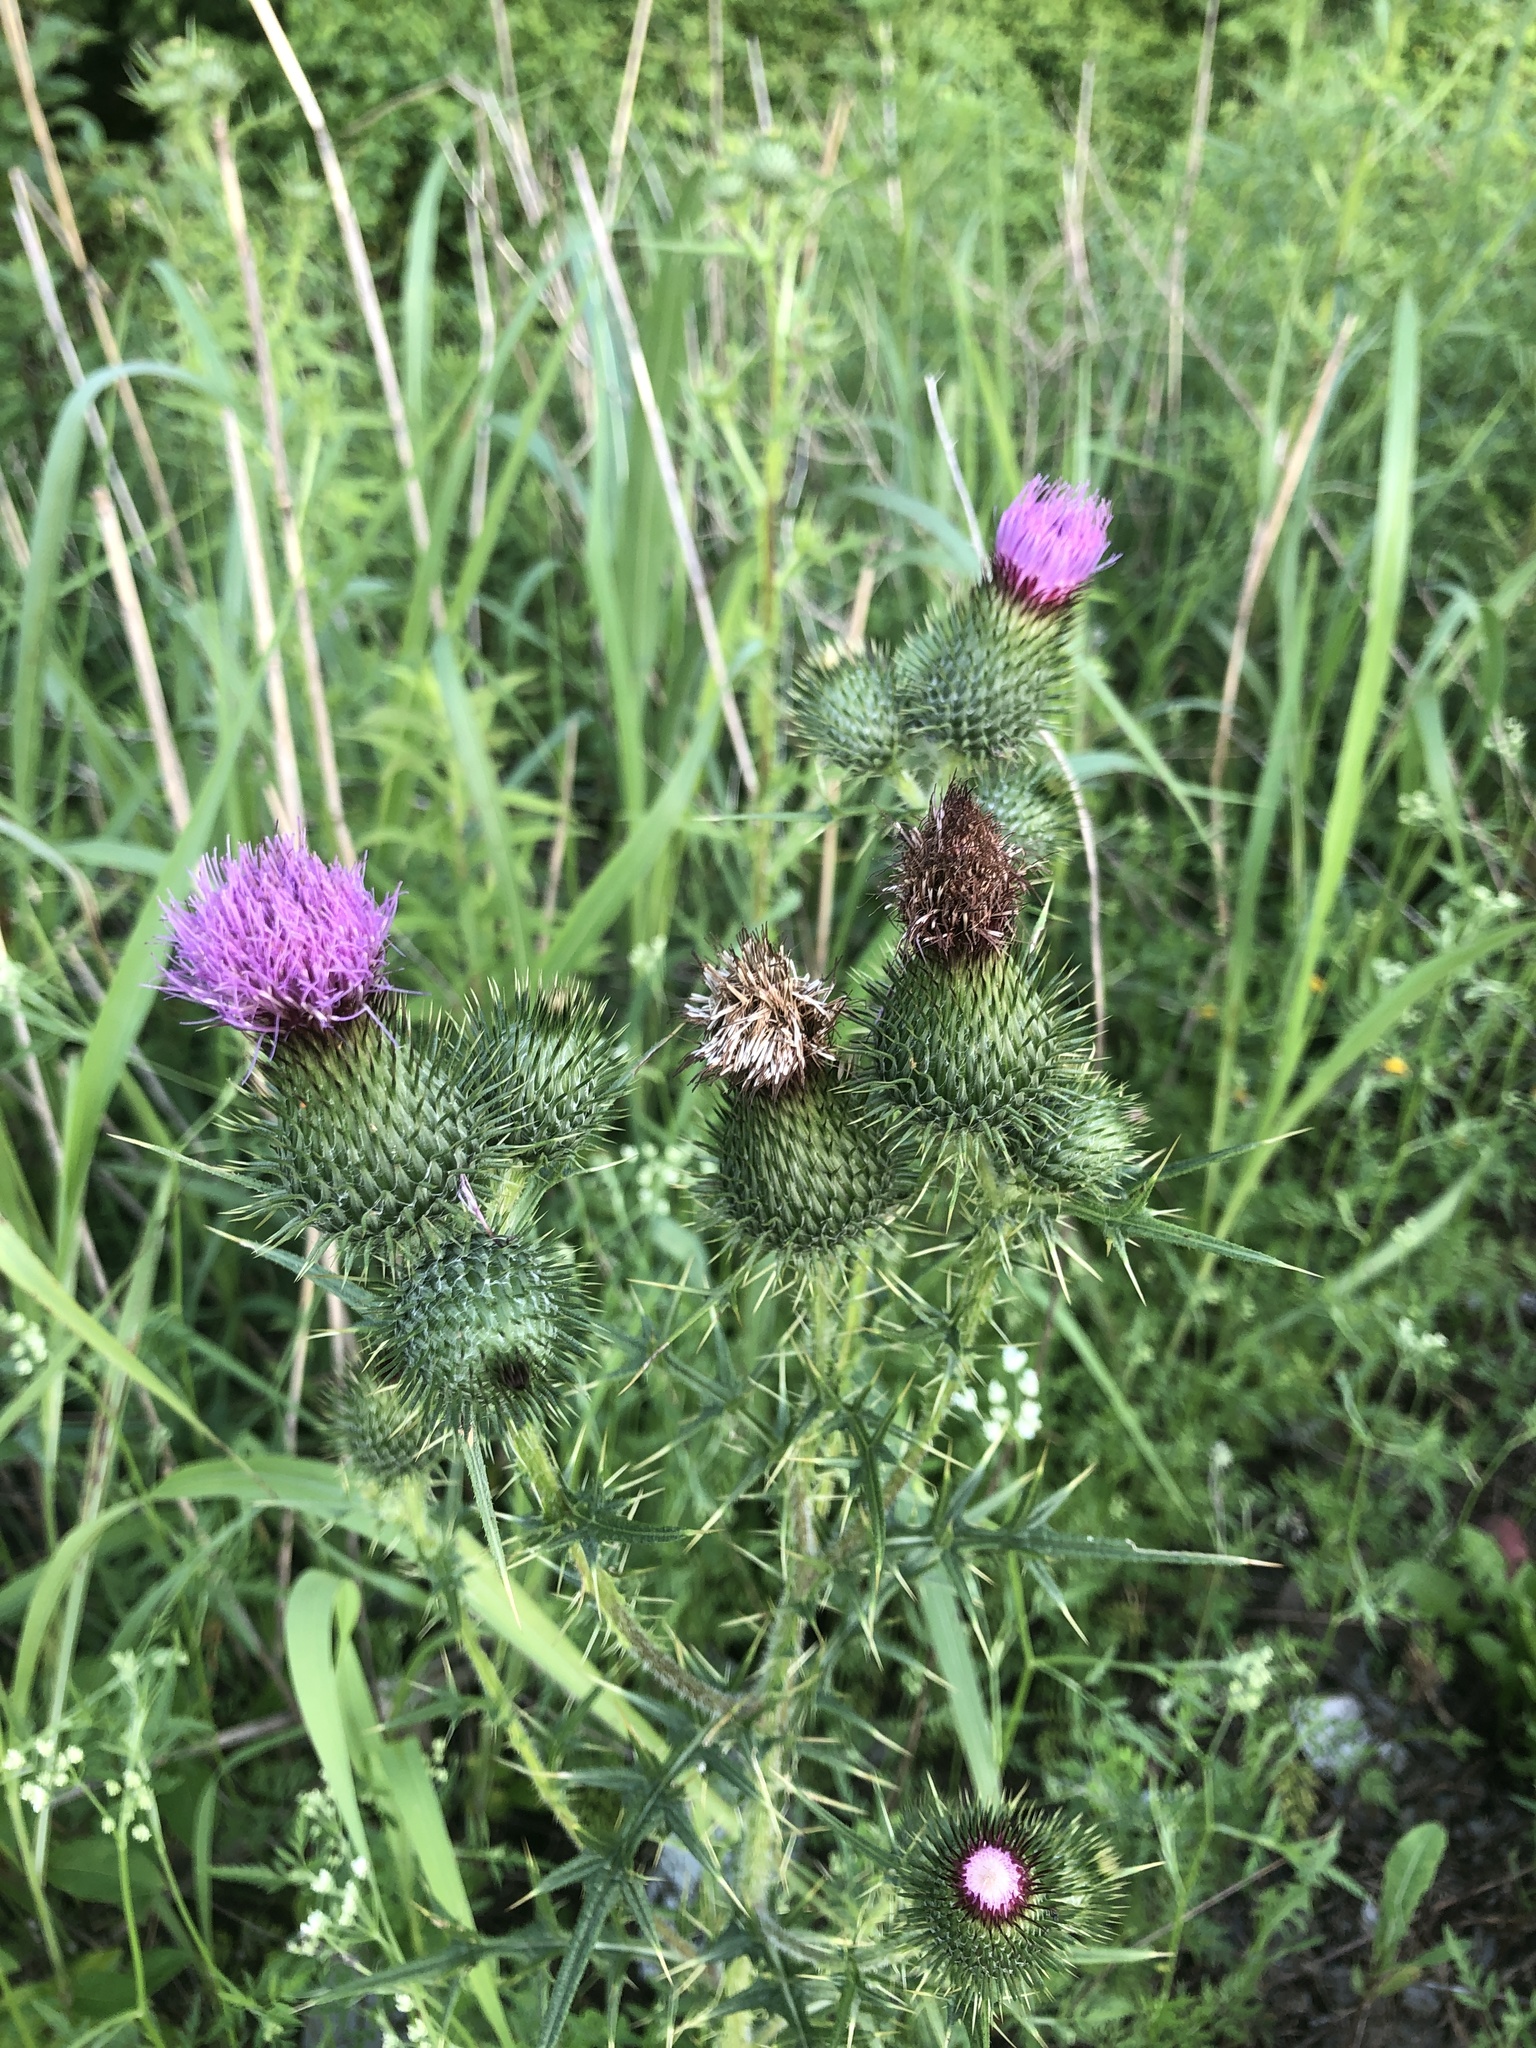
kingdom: Plantae
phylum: Tracheophyta
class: Magnoliopsida
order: Asterales
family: Asteraceae
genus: Cirsium
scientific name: Cirsium vulgare
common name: Bull thistle
